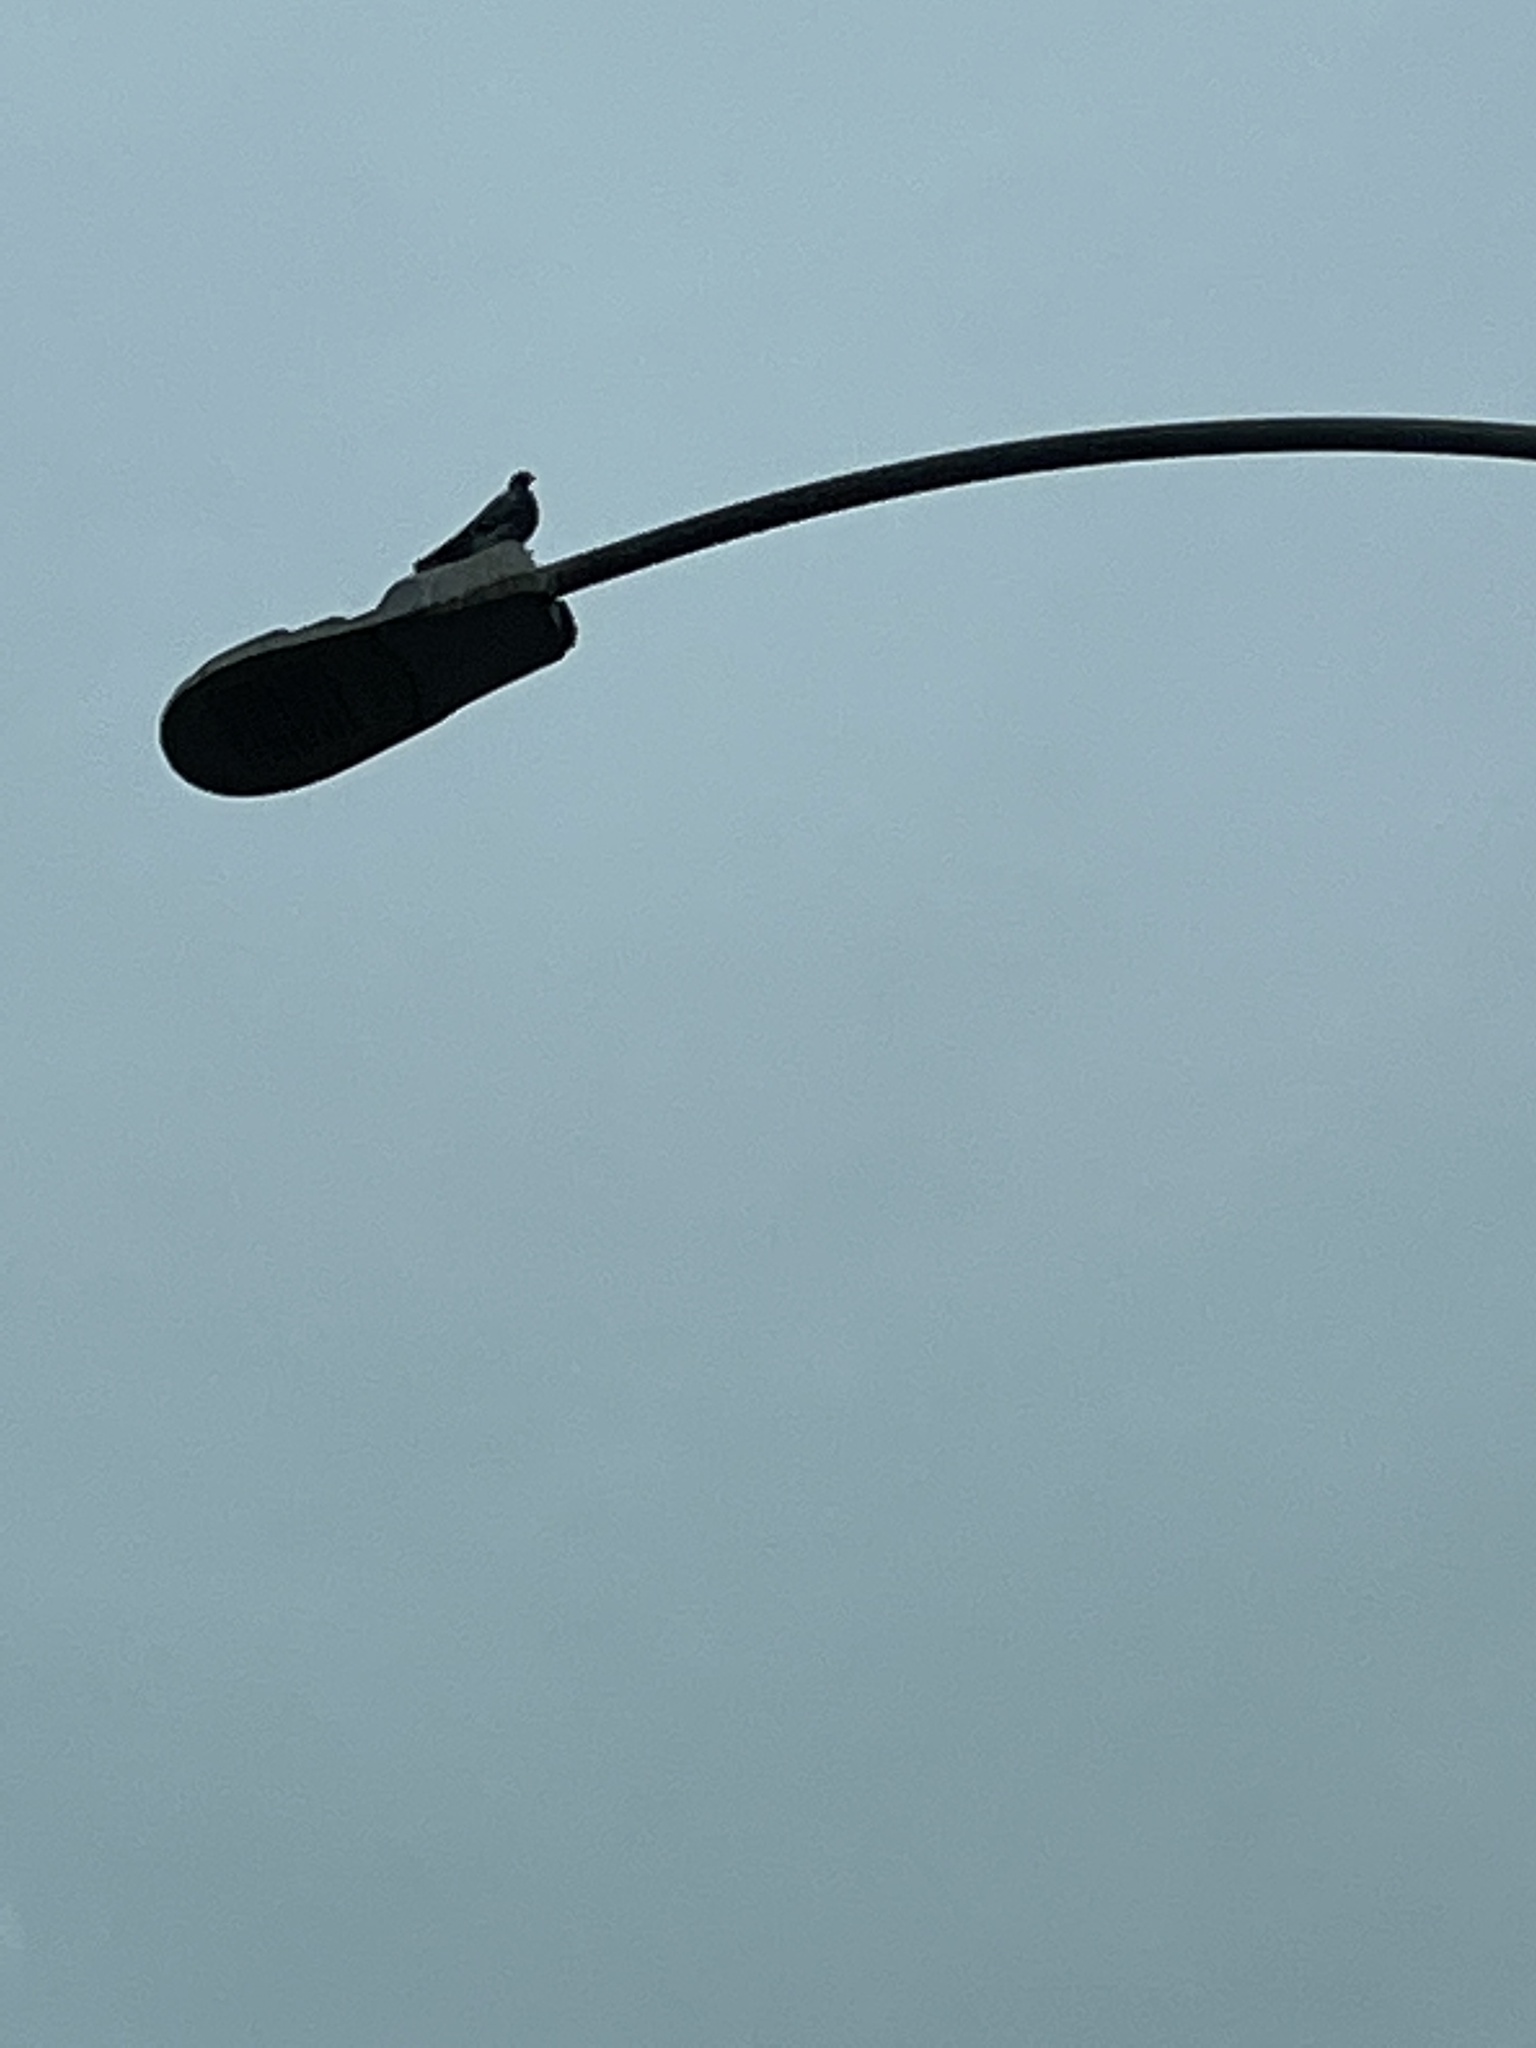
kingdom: Animalia
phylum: Chordata
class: Aves
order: Columbiformes
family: Columbidae
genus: Columba
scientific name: Columba livia
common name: Rock pigeon
